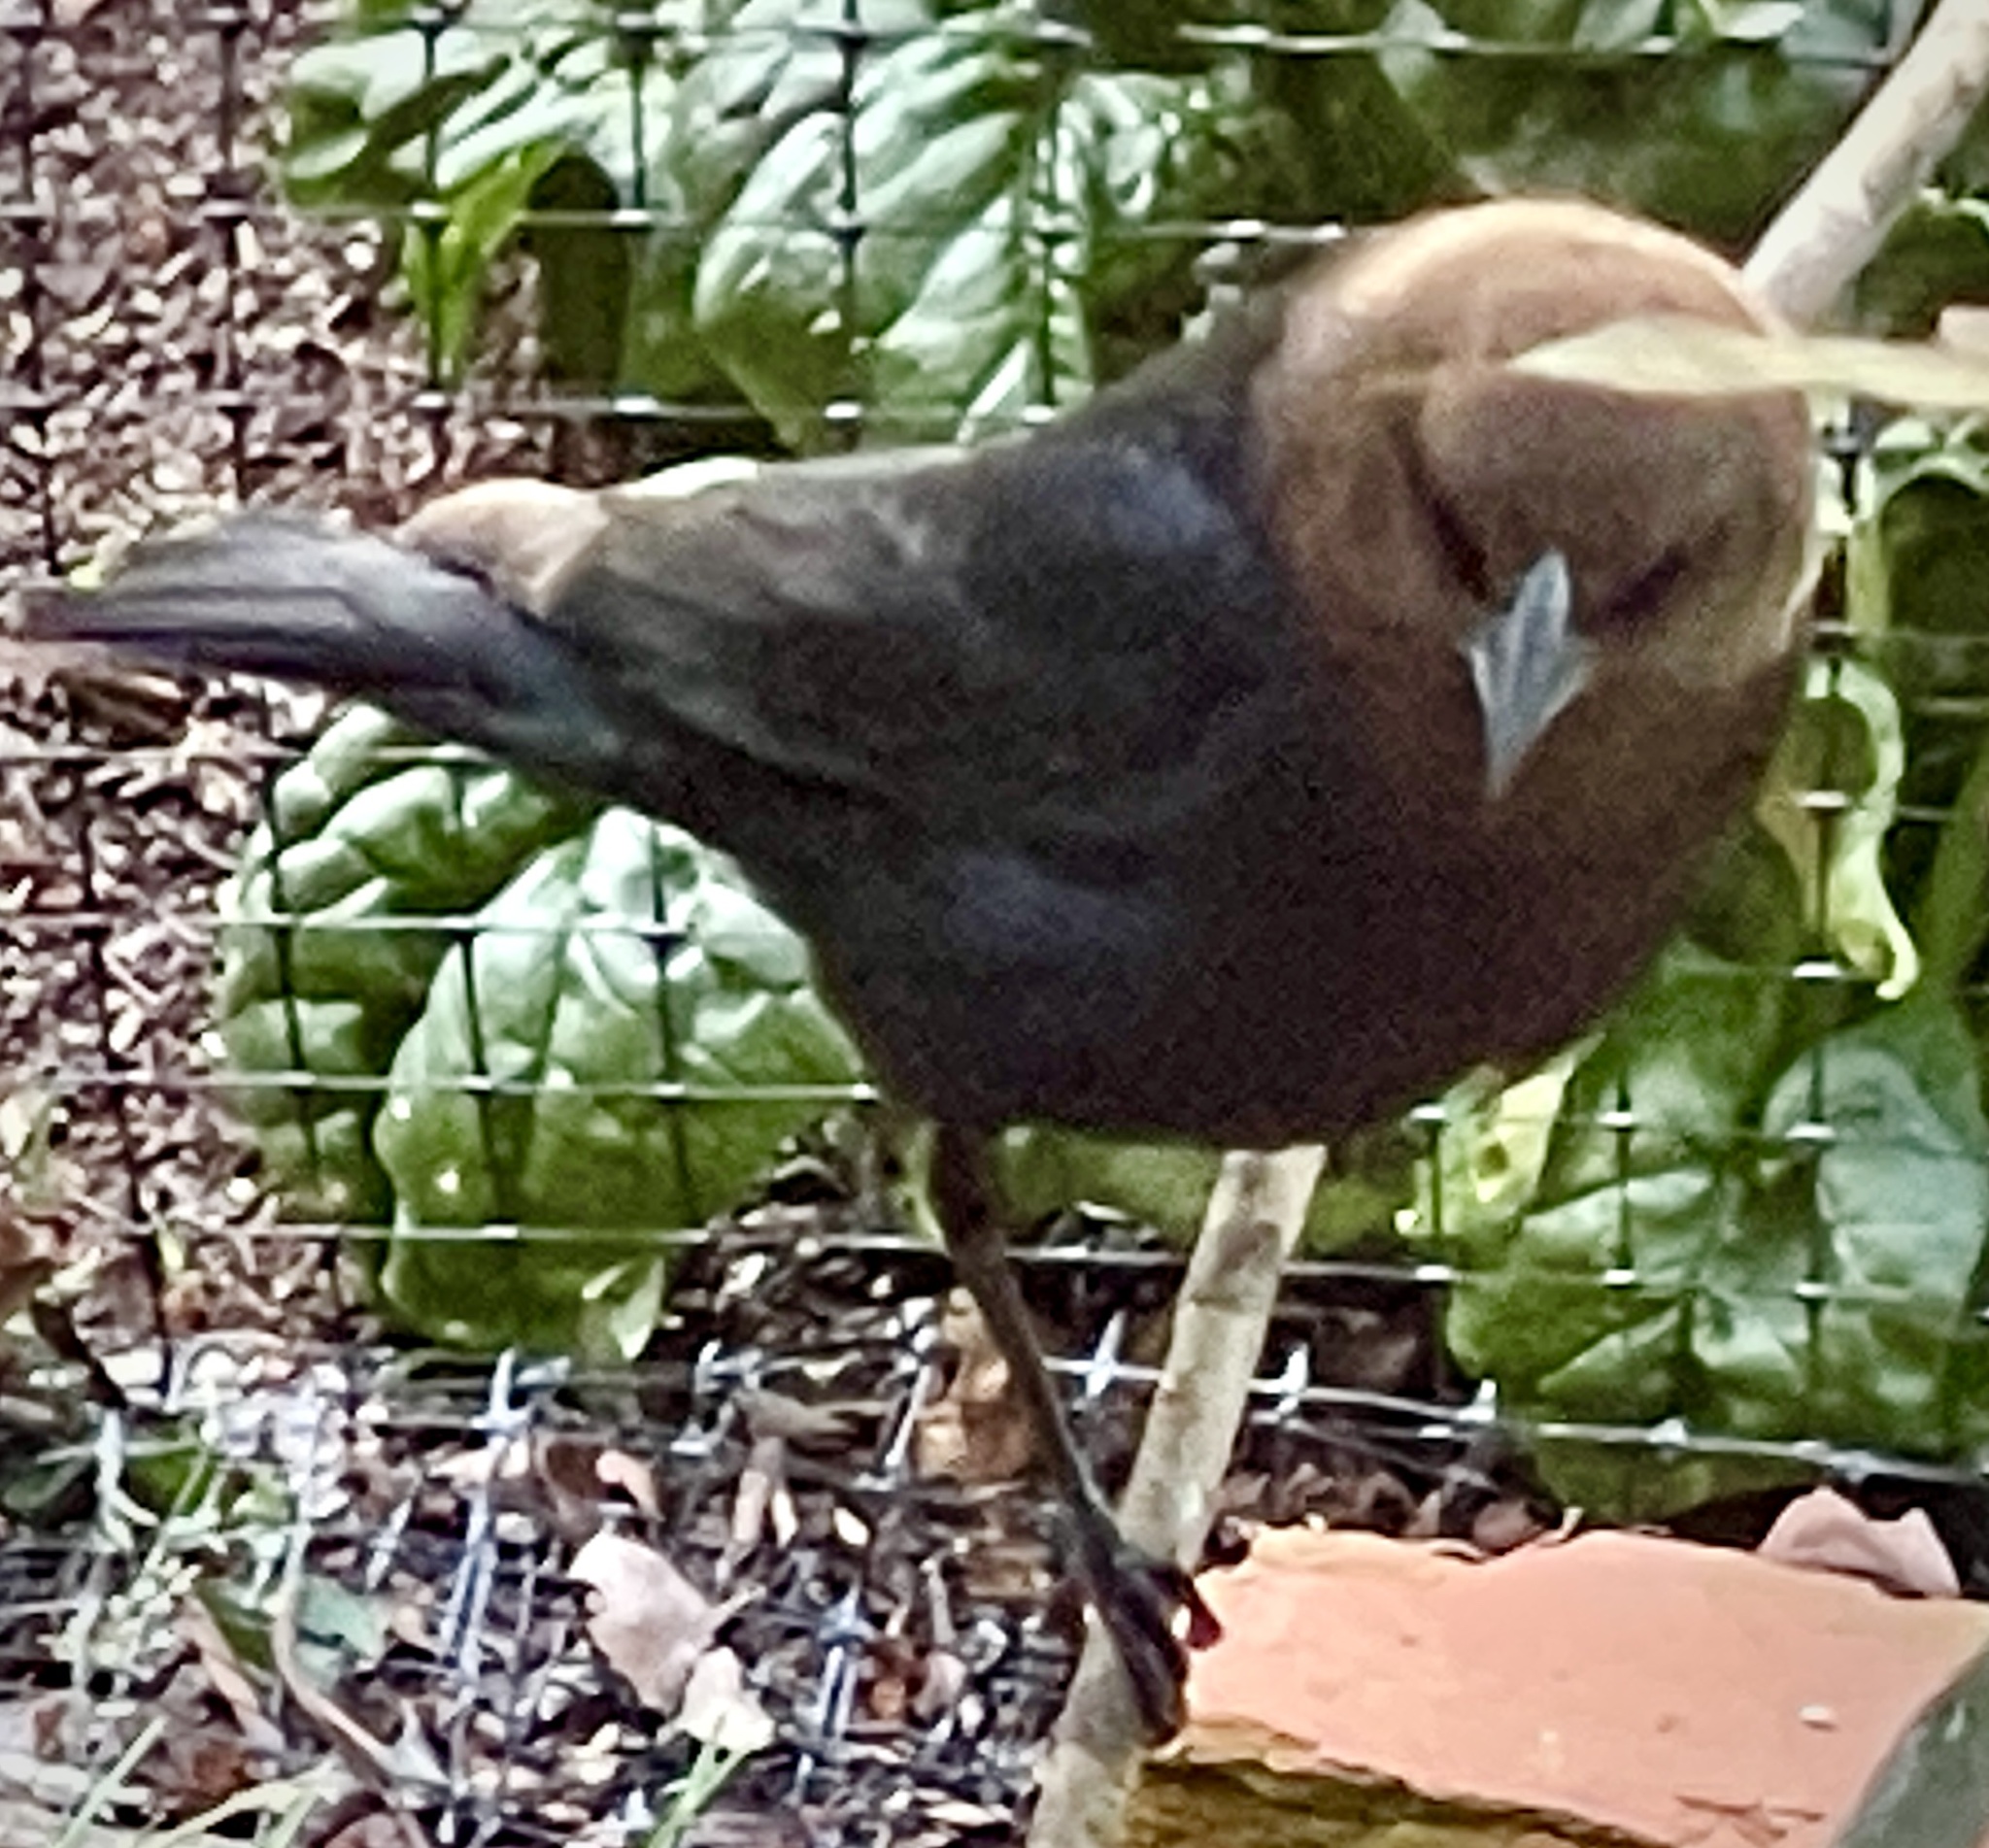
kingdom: Animalia
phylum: Chordata
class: Aves
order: Passeriformes
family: Icteridae
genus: Molothrus
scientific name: Molothrus ater
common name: Brown-headed cowbird
